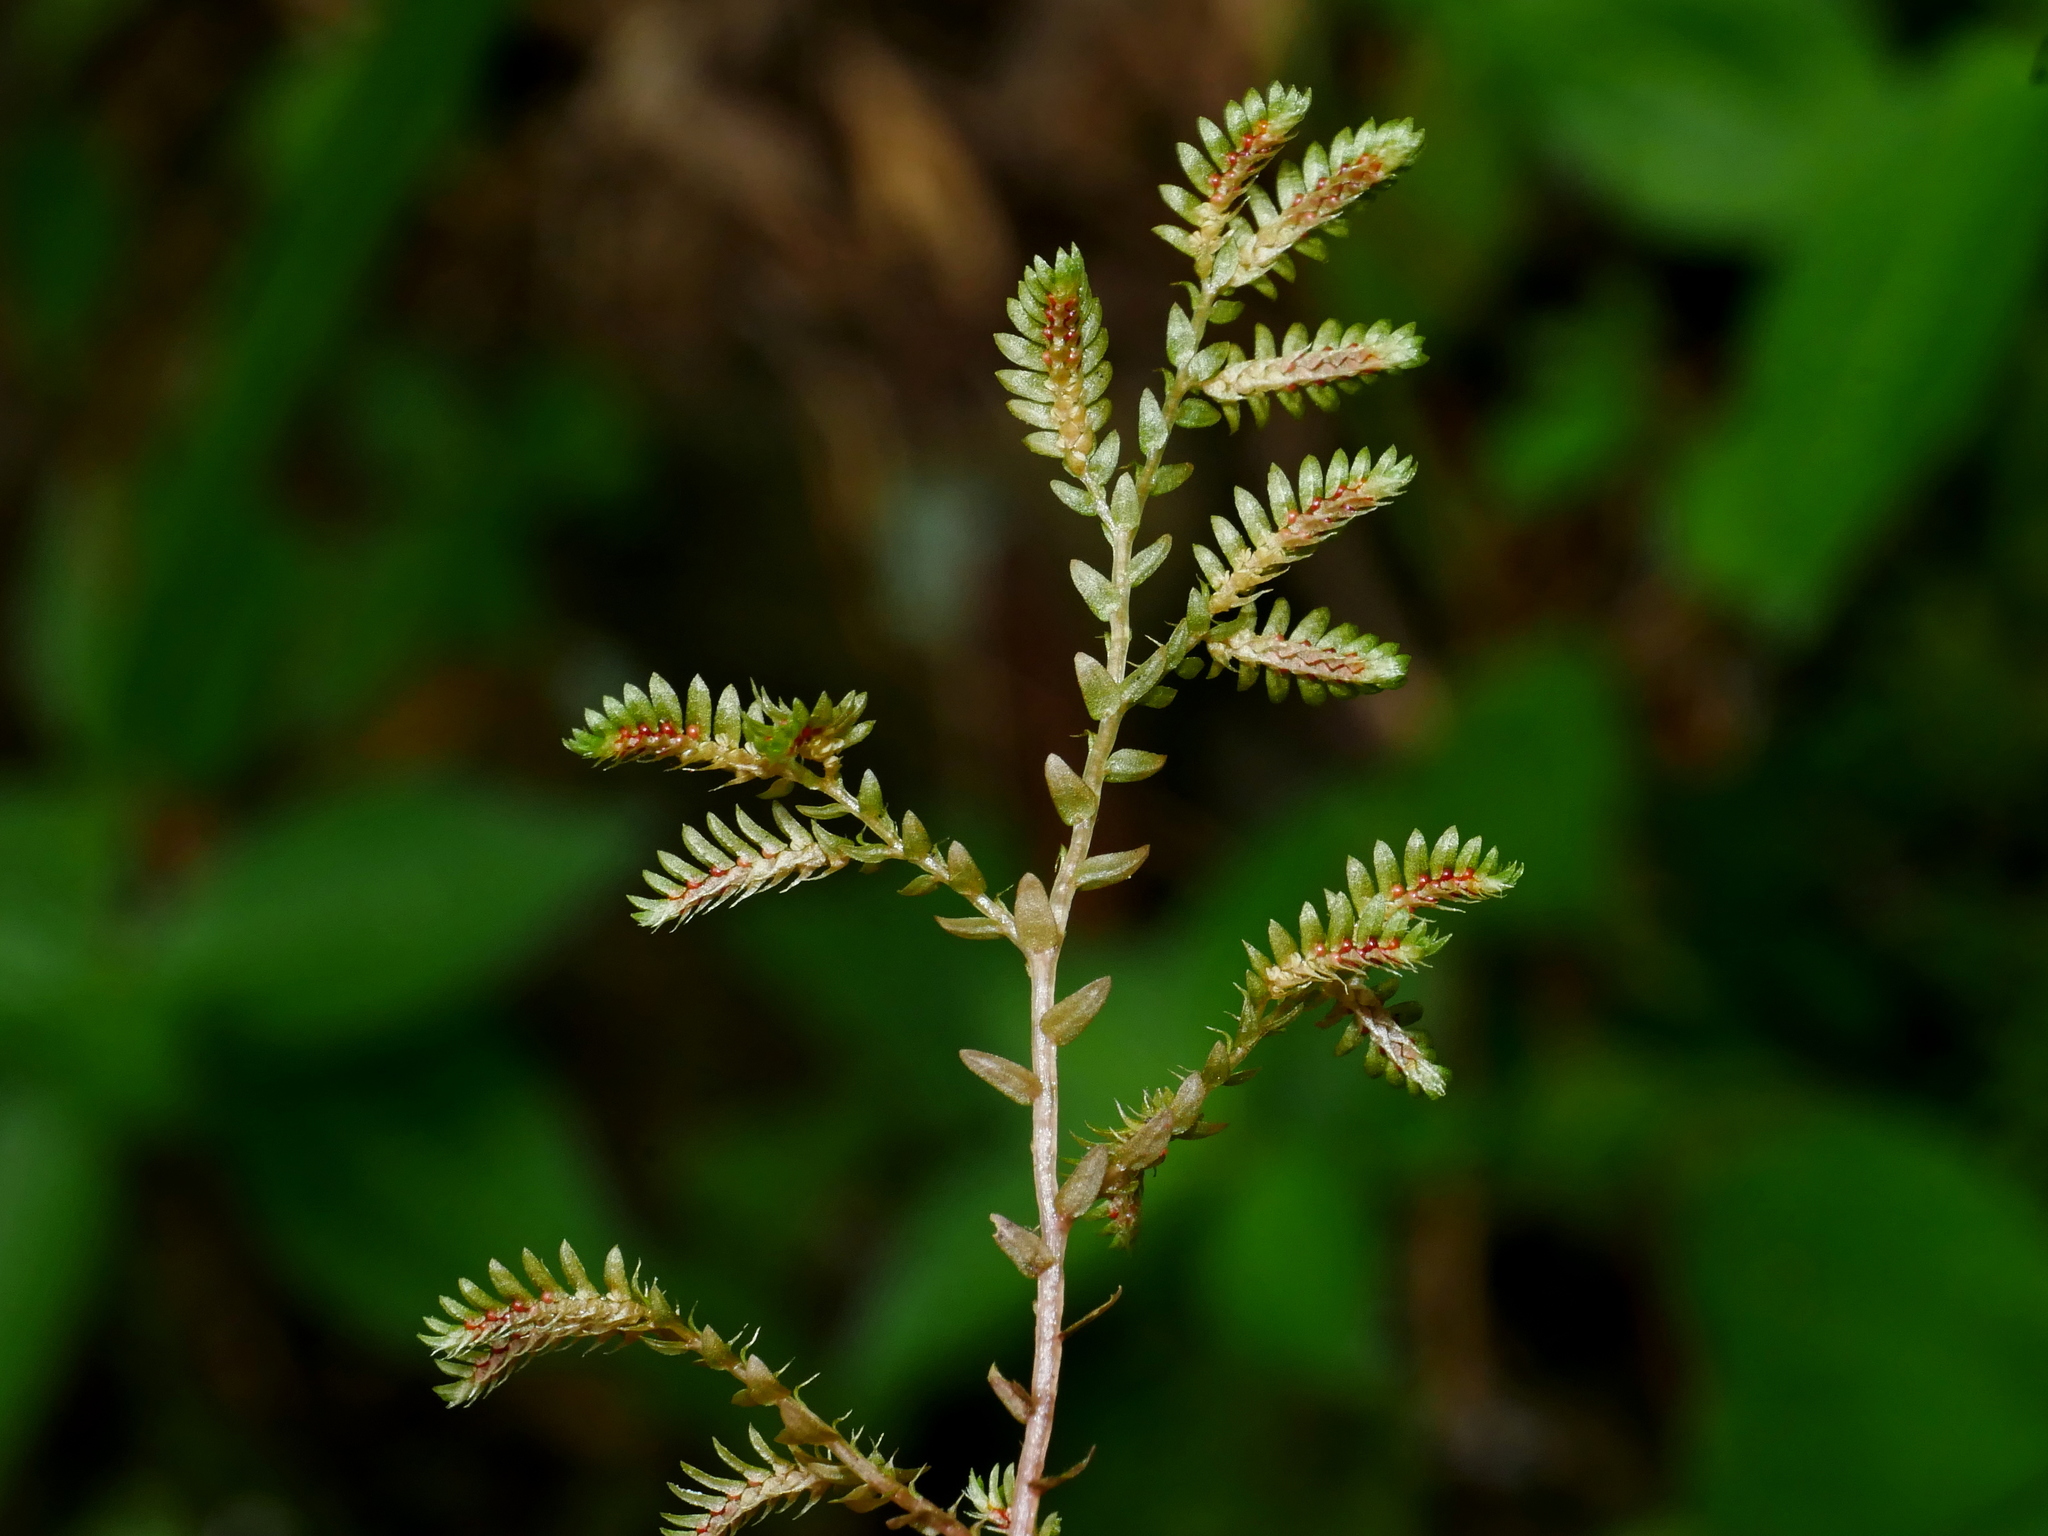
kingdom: Plantae
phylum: Tracheophyta
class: Lycopodiopsida
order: Selaginellales
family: Selaginellaceae
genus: Selaginella
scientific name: Selaginella aristata
